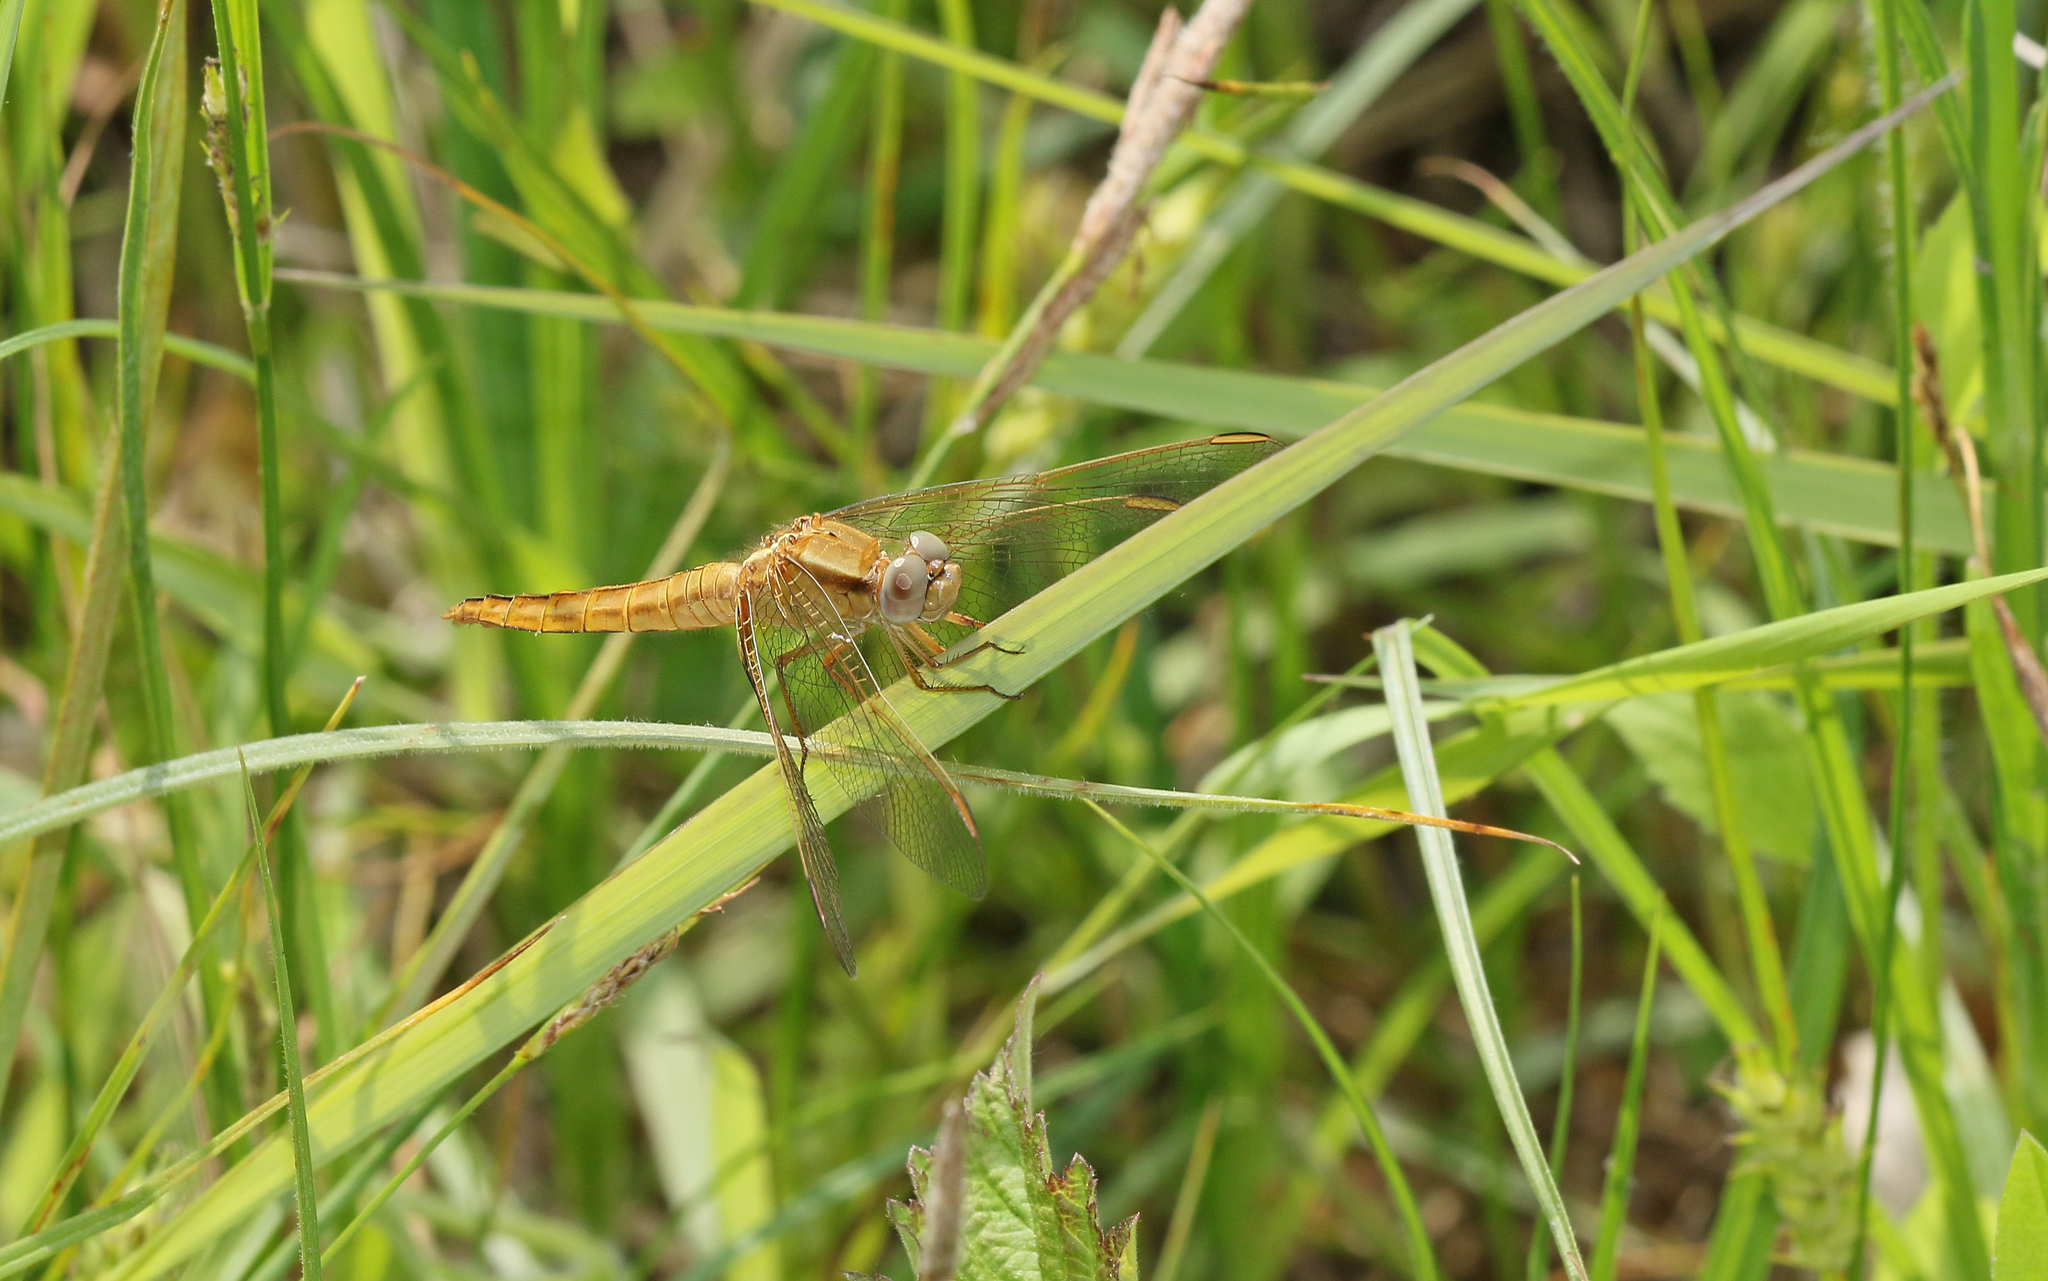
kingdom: Animalia
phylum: Arthropoda
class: Insecta
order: Odonata
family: Libellulidae
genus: Crocothemis
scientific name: Crocothemis erythraea
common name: Scarlet dragonfly
